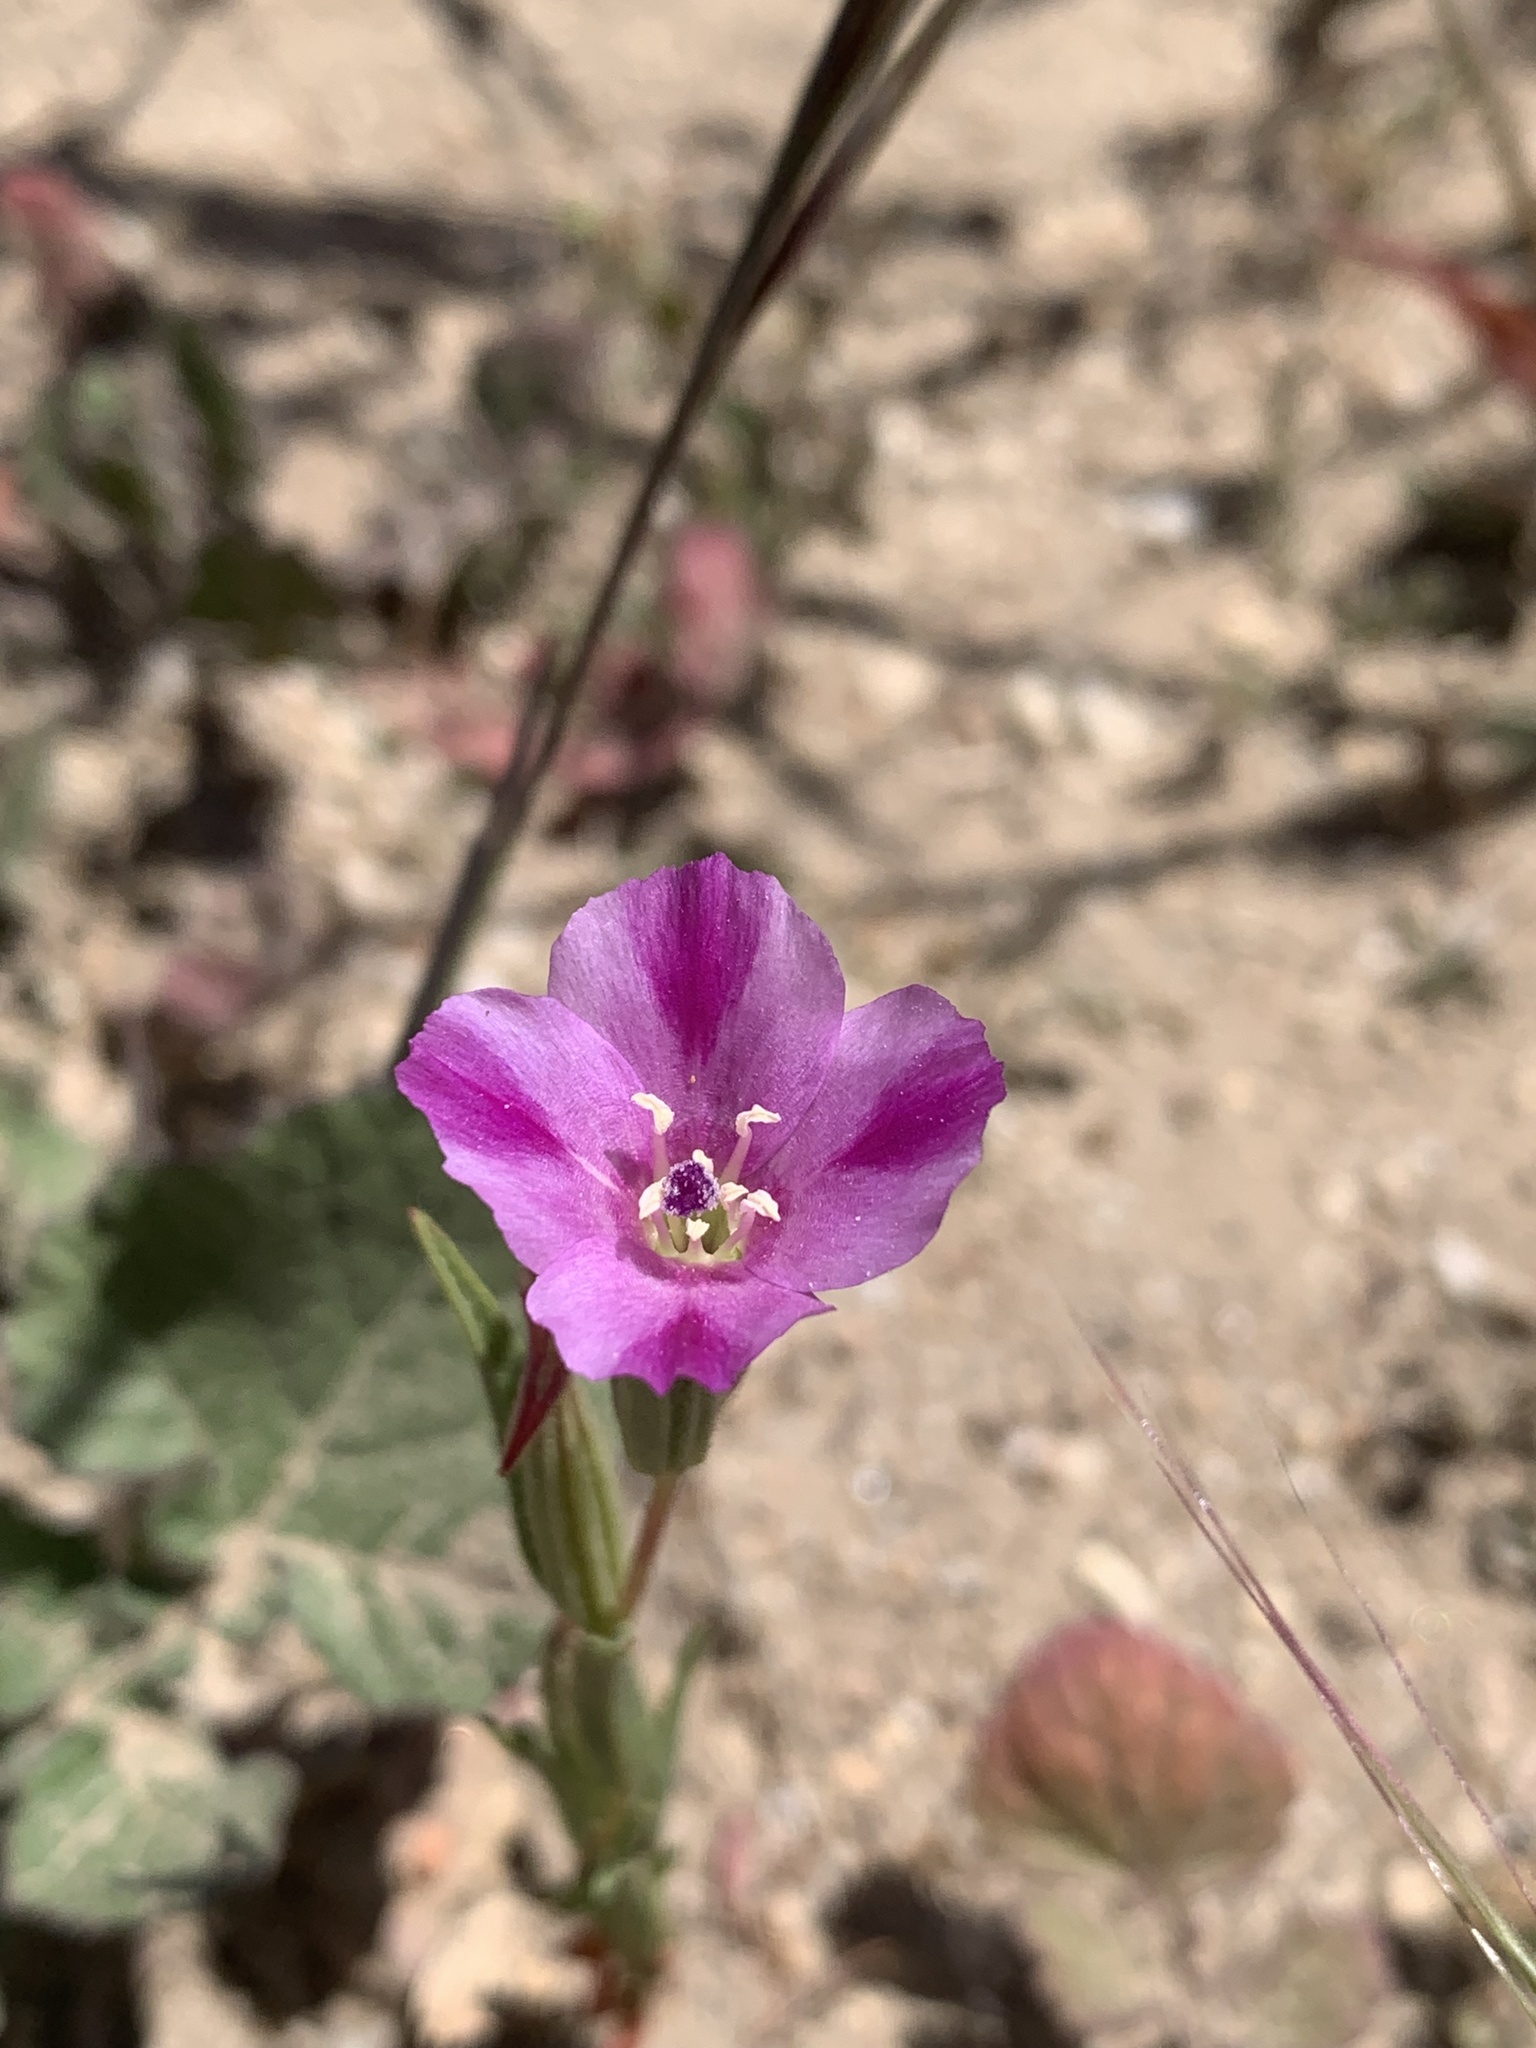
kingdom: Plantae
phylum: Tracheophyta
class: Magnoliopsida
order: Myrtales
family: Onagraceae
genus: Clarkia
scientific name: Clarkia purpurea
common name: Purple clarkia
